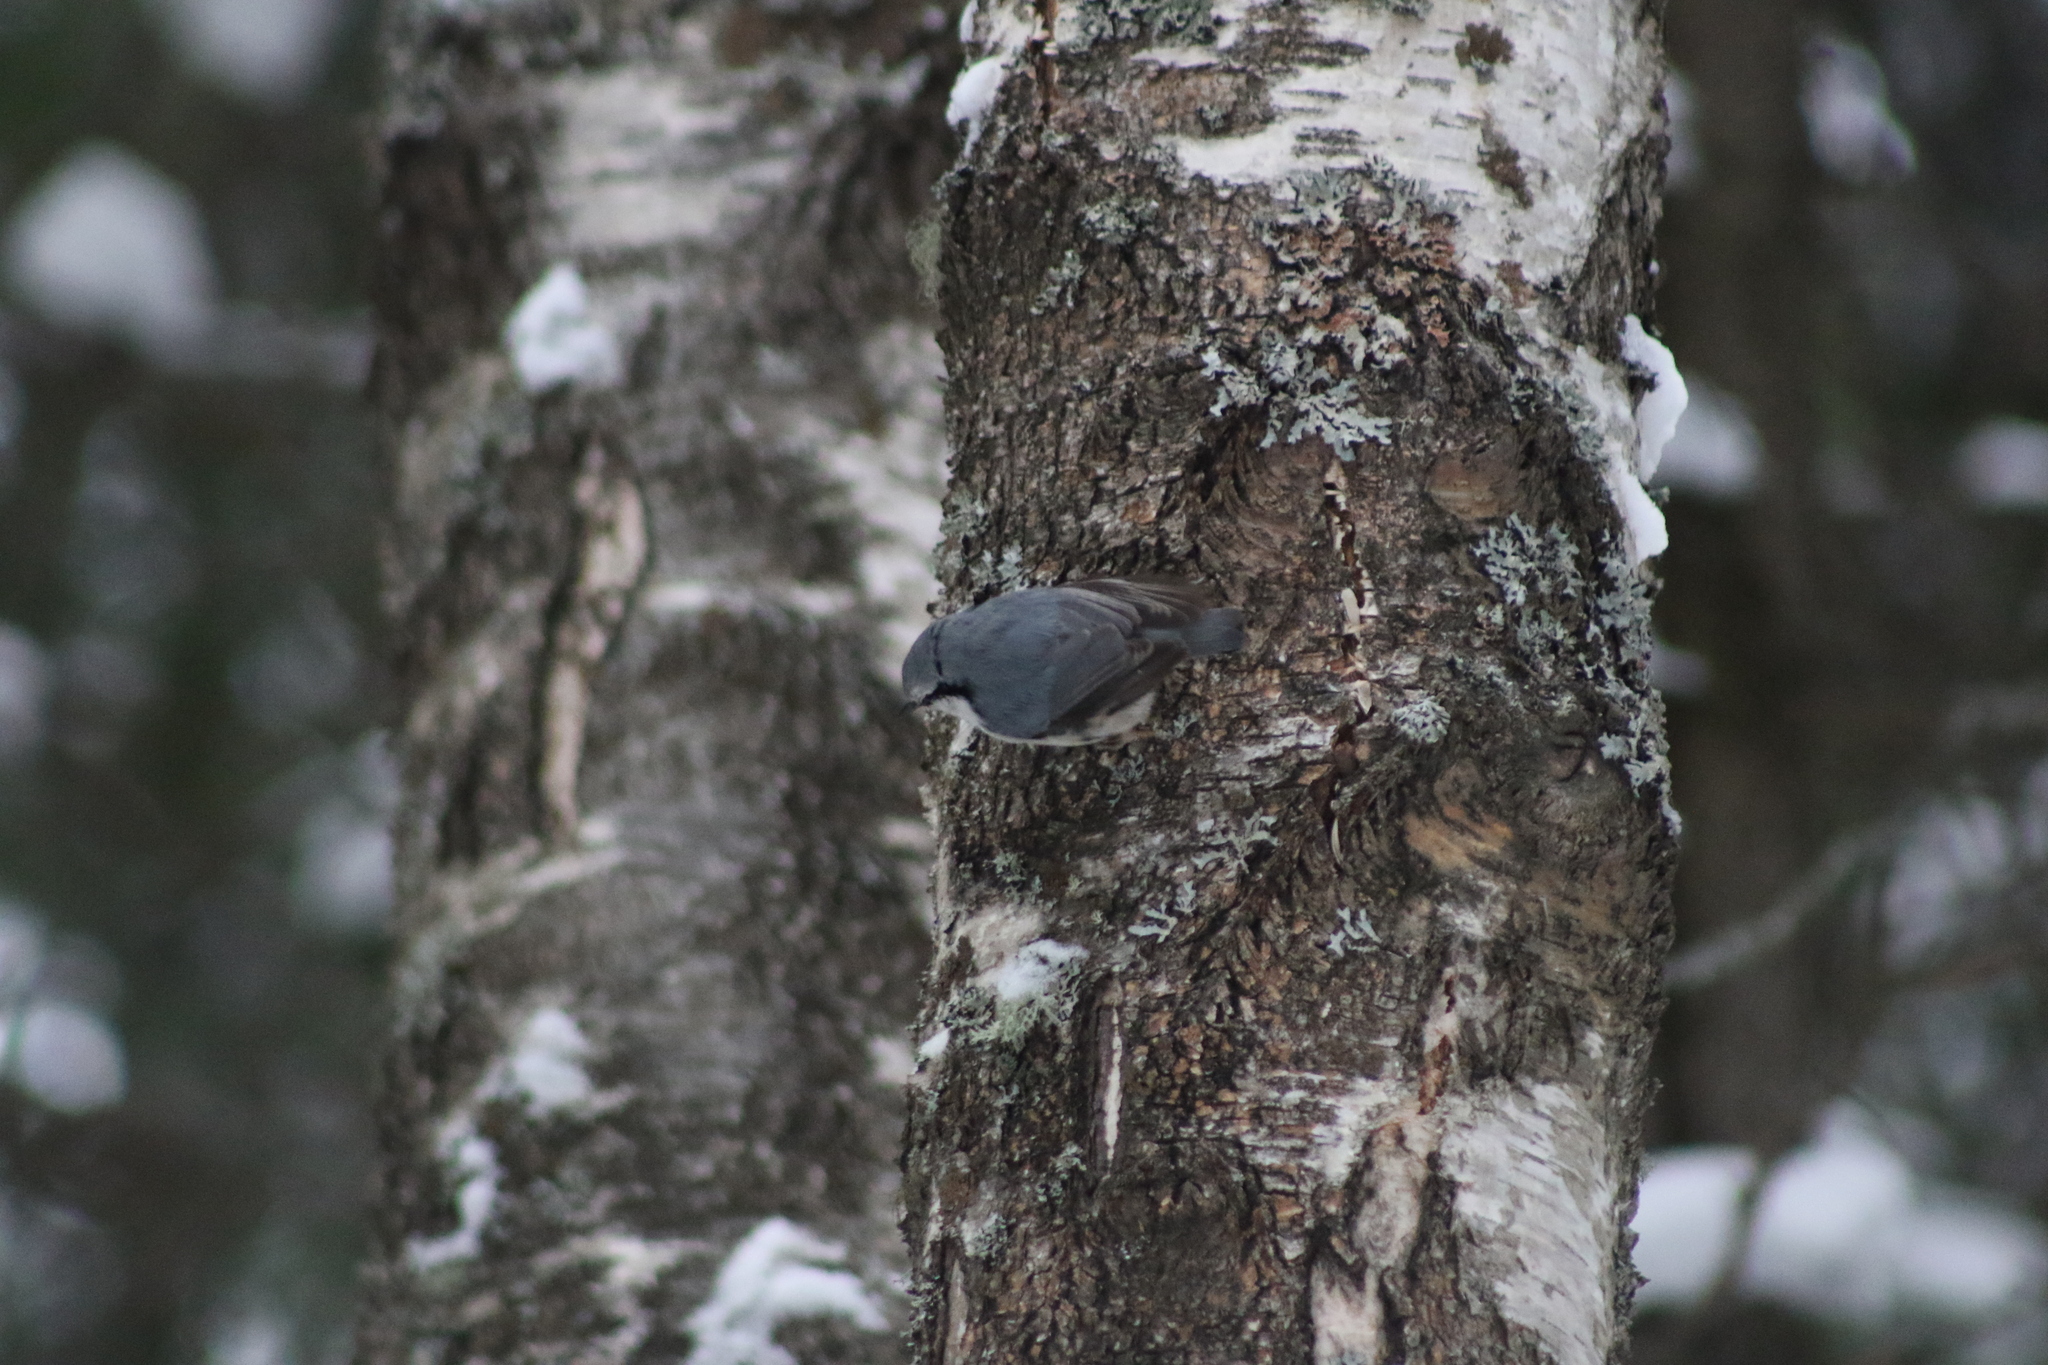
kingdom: Animalia
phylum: Chordata
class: Aves
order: Passeriformes
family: Sittidae
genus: Sitta
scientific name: Sitta europaea
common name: Eurasian nuthatch
